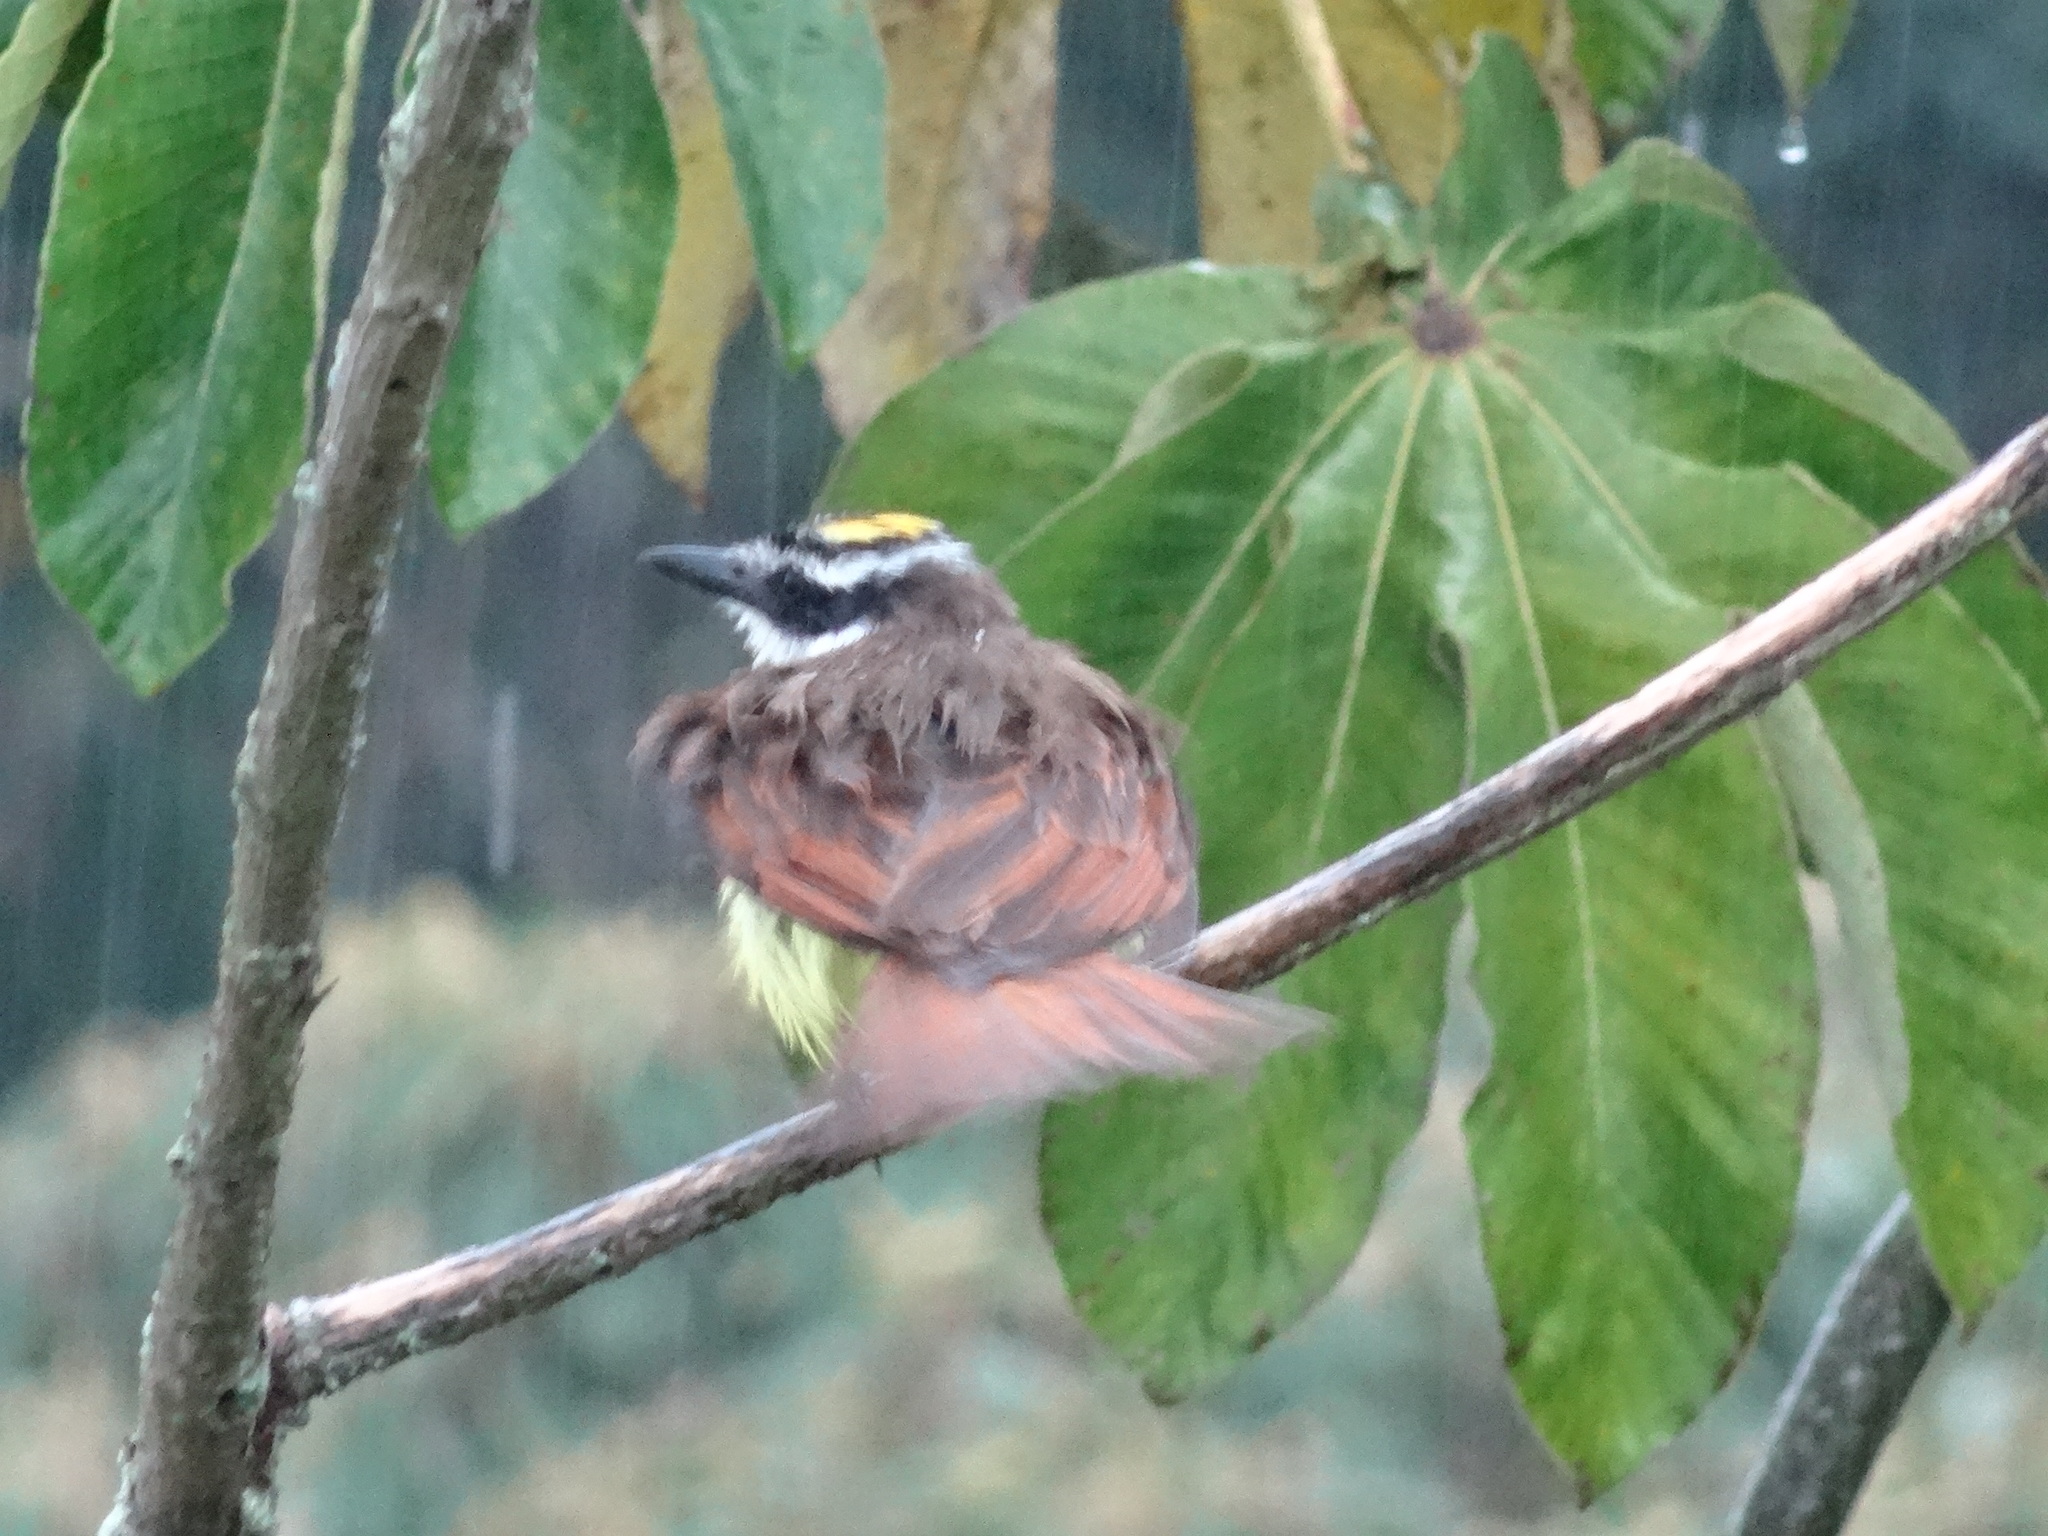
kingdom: Animalia
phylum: Chordata
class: Aves
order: Passeriformes
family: Tyrannidae
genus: Pitangus
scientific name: Pitangus sulphuratus
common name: Great kiskadee
